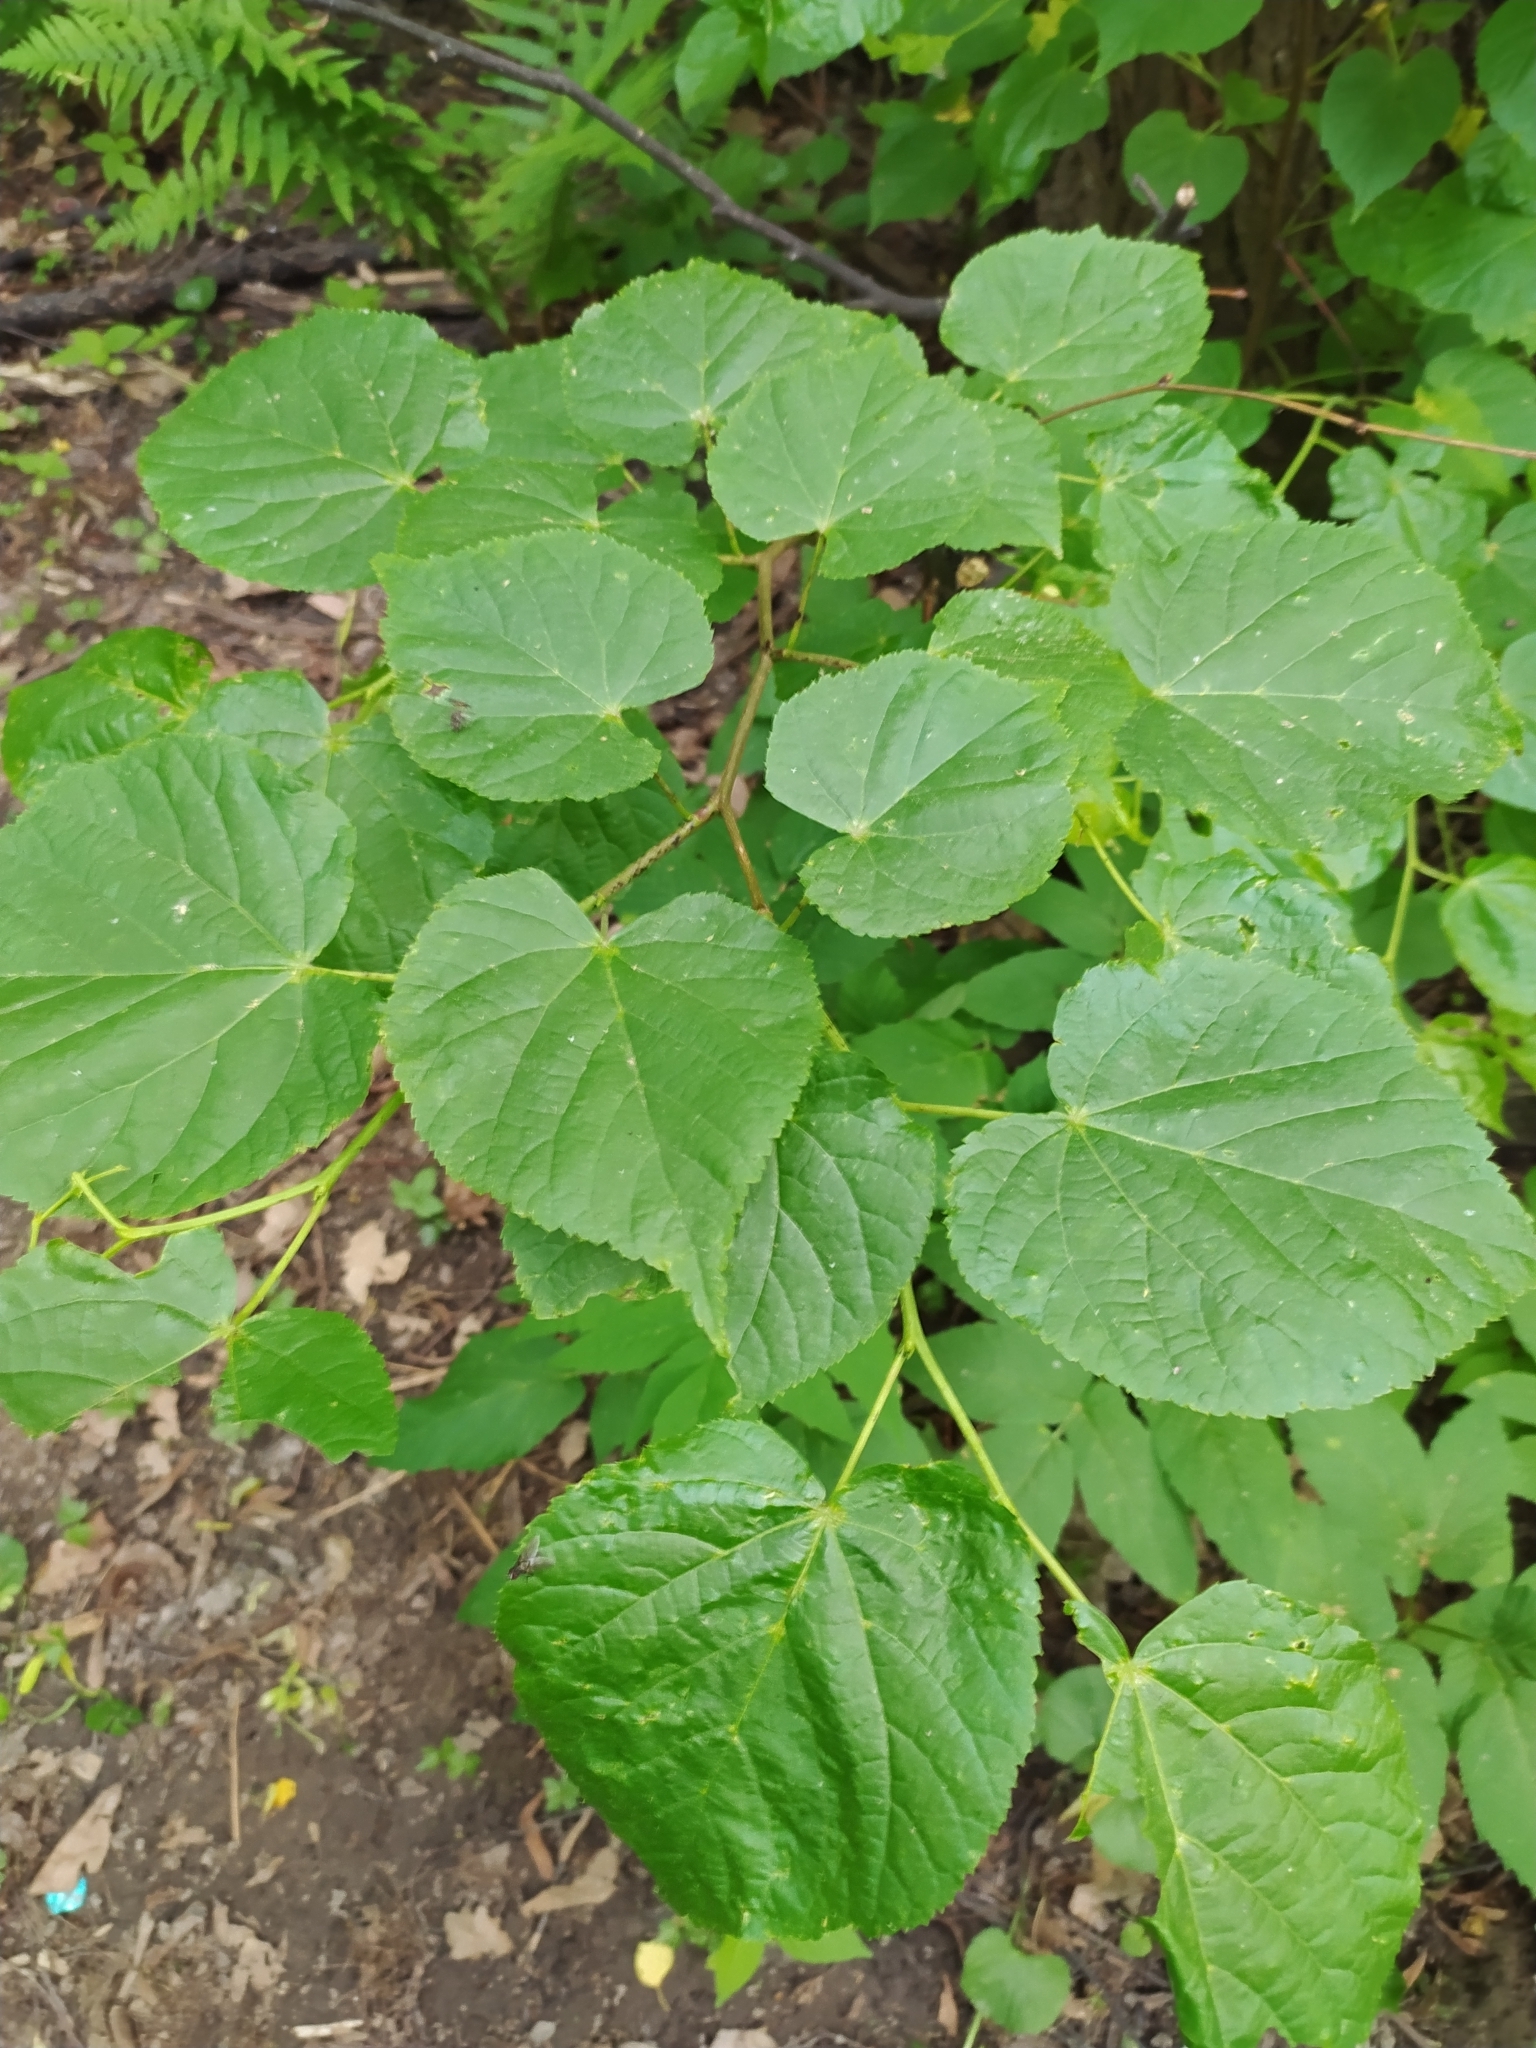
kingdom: Plantae
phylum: Tracheophyta
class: Magnoliopsida
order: Malvales
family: Malvaceae
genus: Tilia
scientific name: Tilia cordata
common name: Small-leaved lime
